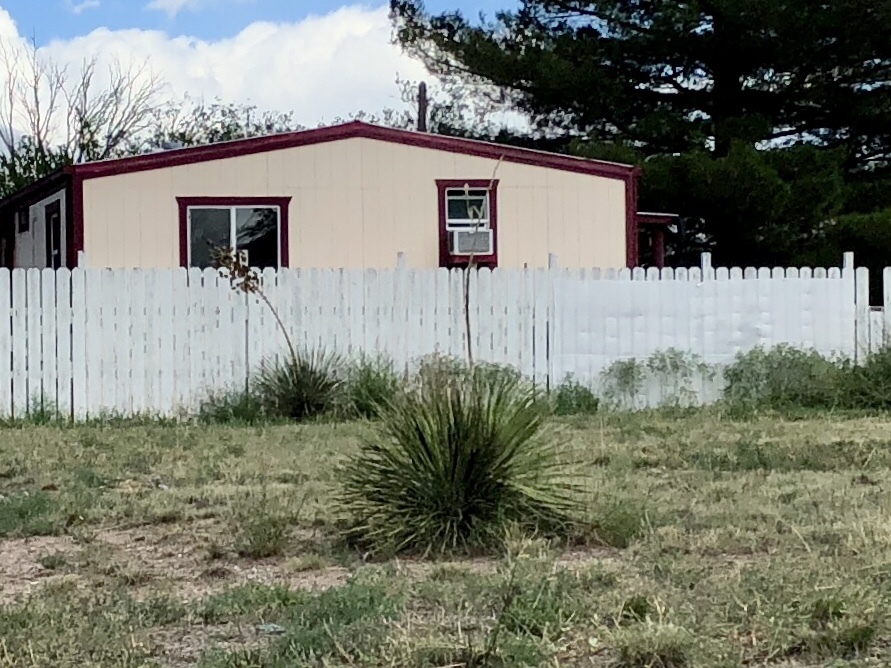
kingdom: Plantae
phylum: Tracheophyta
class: Liliopsida
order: Asparagales
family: Asparagaceae
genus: Yucca
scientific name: Yucca elata
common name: Palmella
